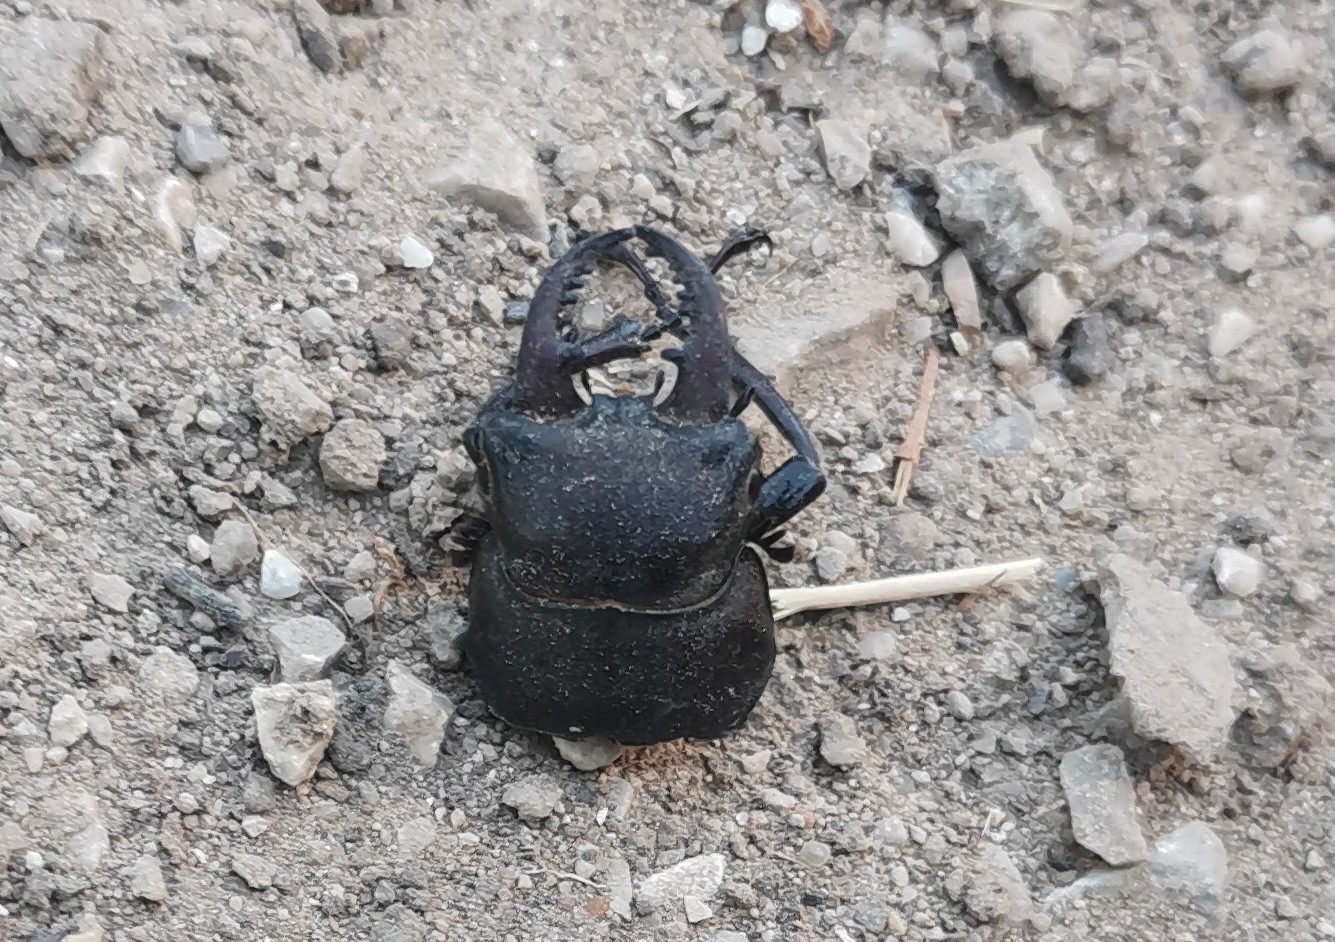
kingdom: Animalia
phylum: Arthropoda
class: Insecta
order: Coleoptera
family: Lucanidae
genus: Lucanus
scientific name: Lucanus tetraodon
